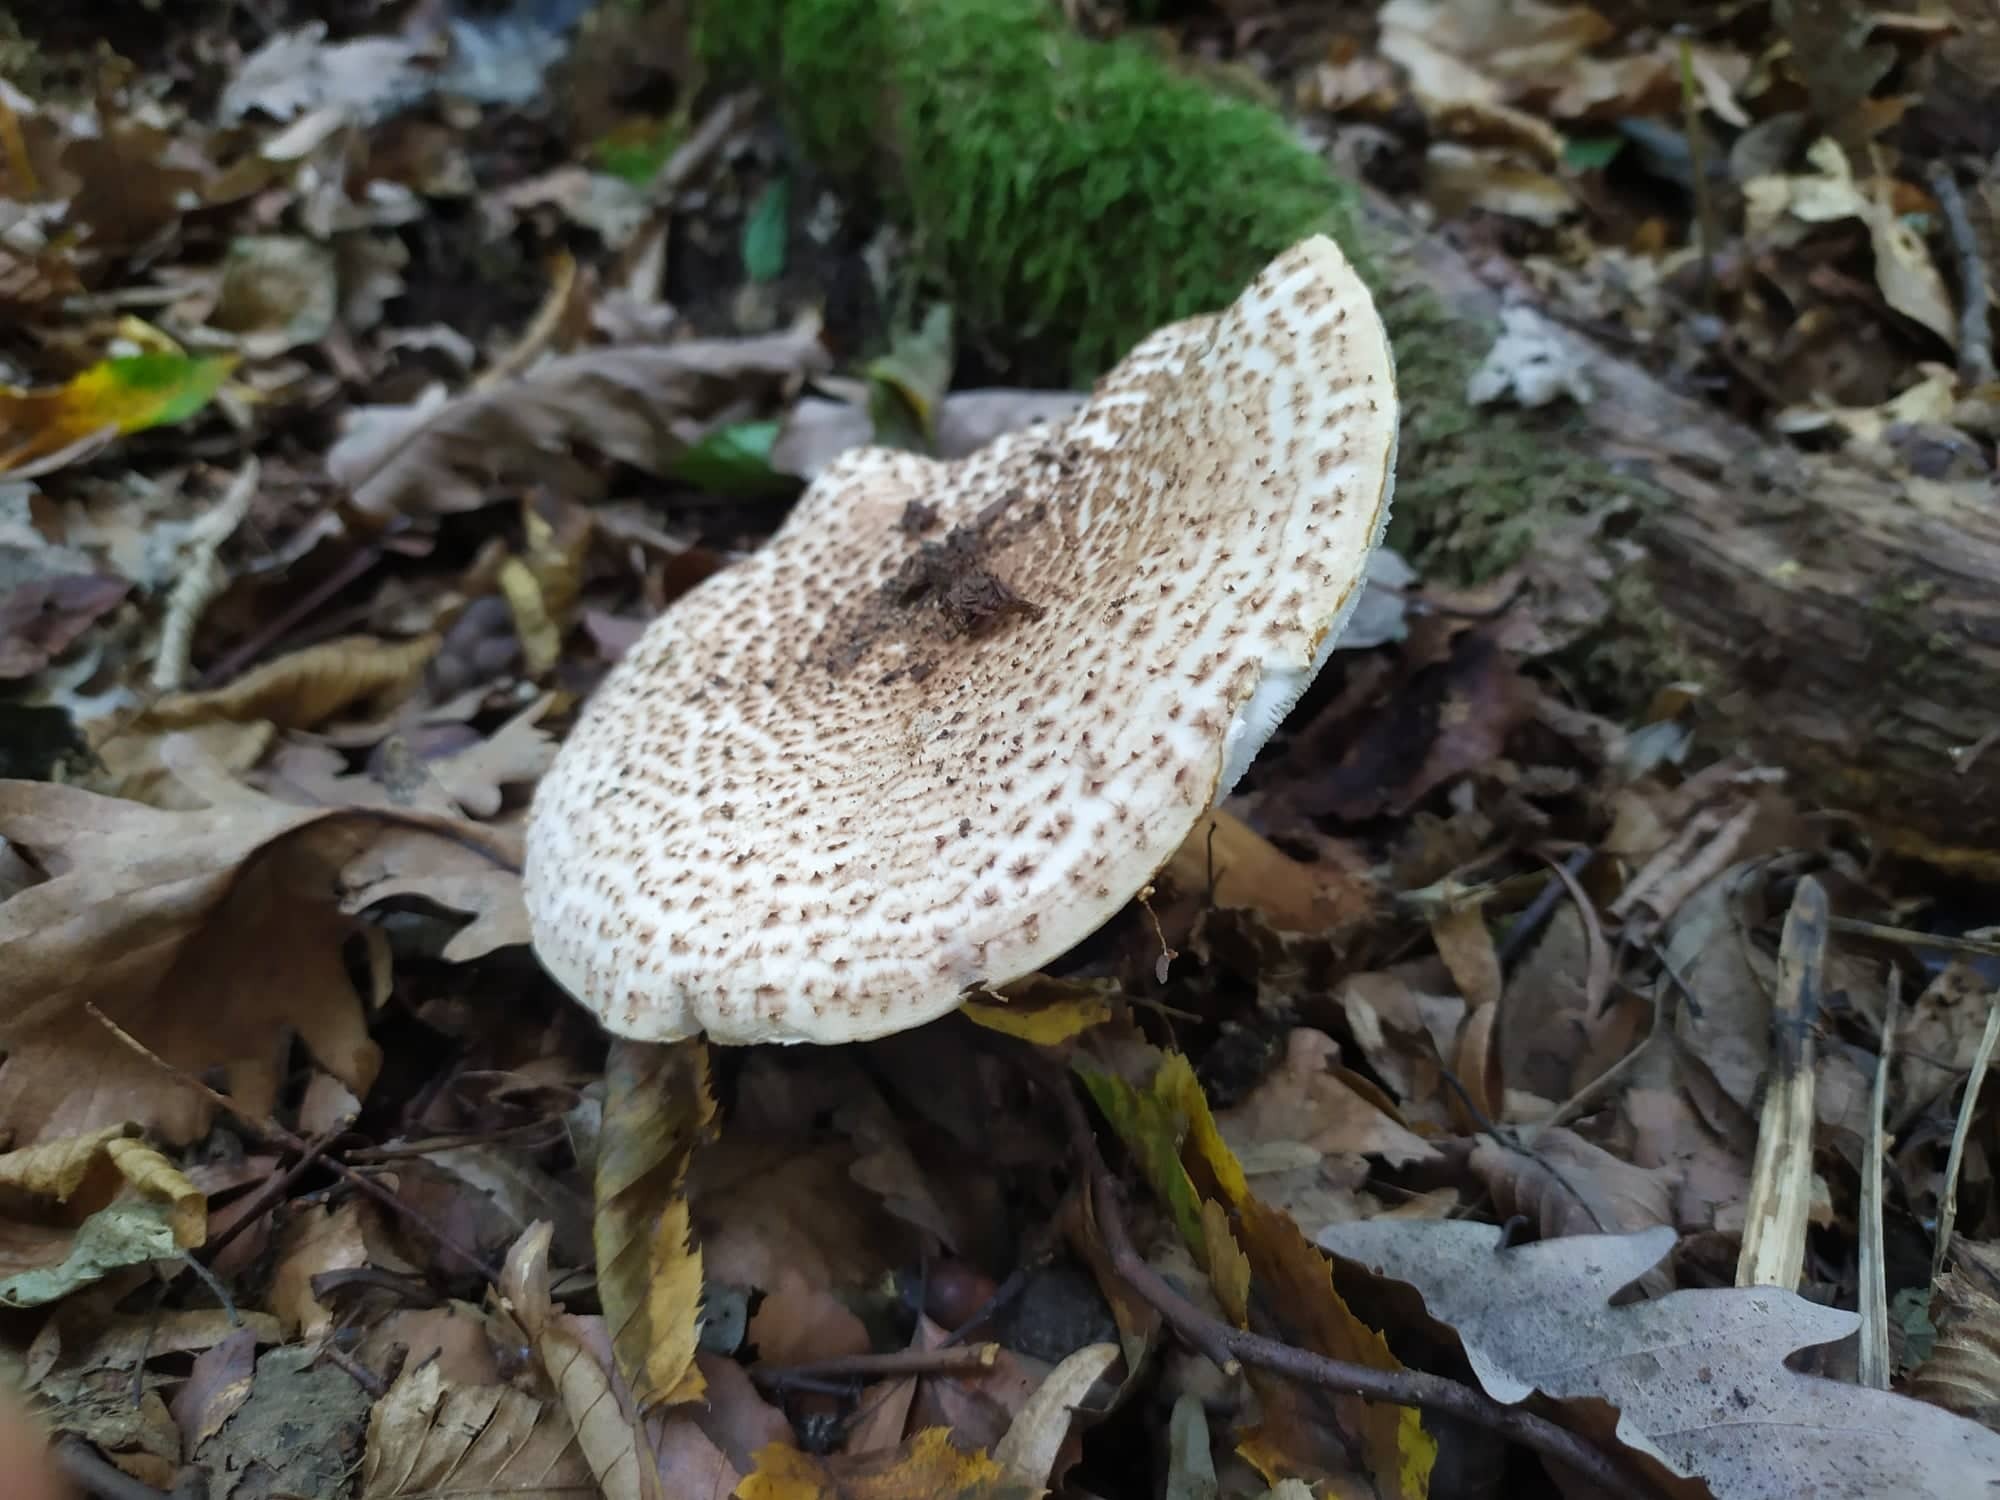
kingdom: Fungi
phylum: Basidiomycota
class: Agaricomycetes
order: Agaricales
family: Agaricaceae
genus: Echinoderma
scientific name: Echinoderma asperum
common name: Freckled dapperling
